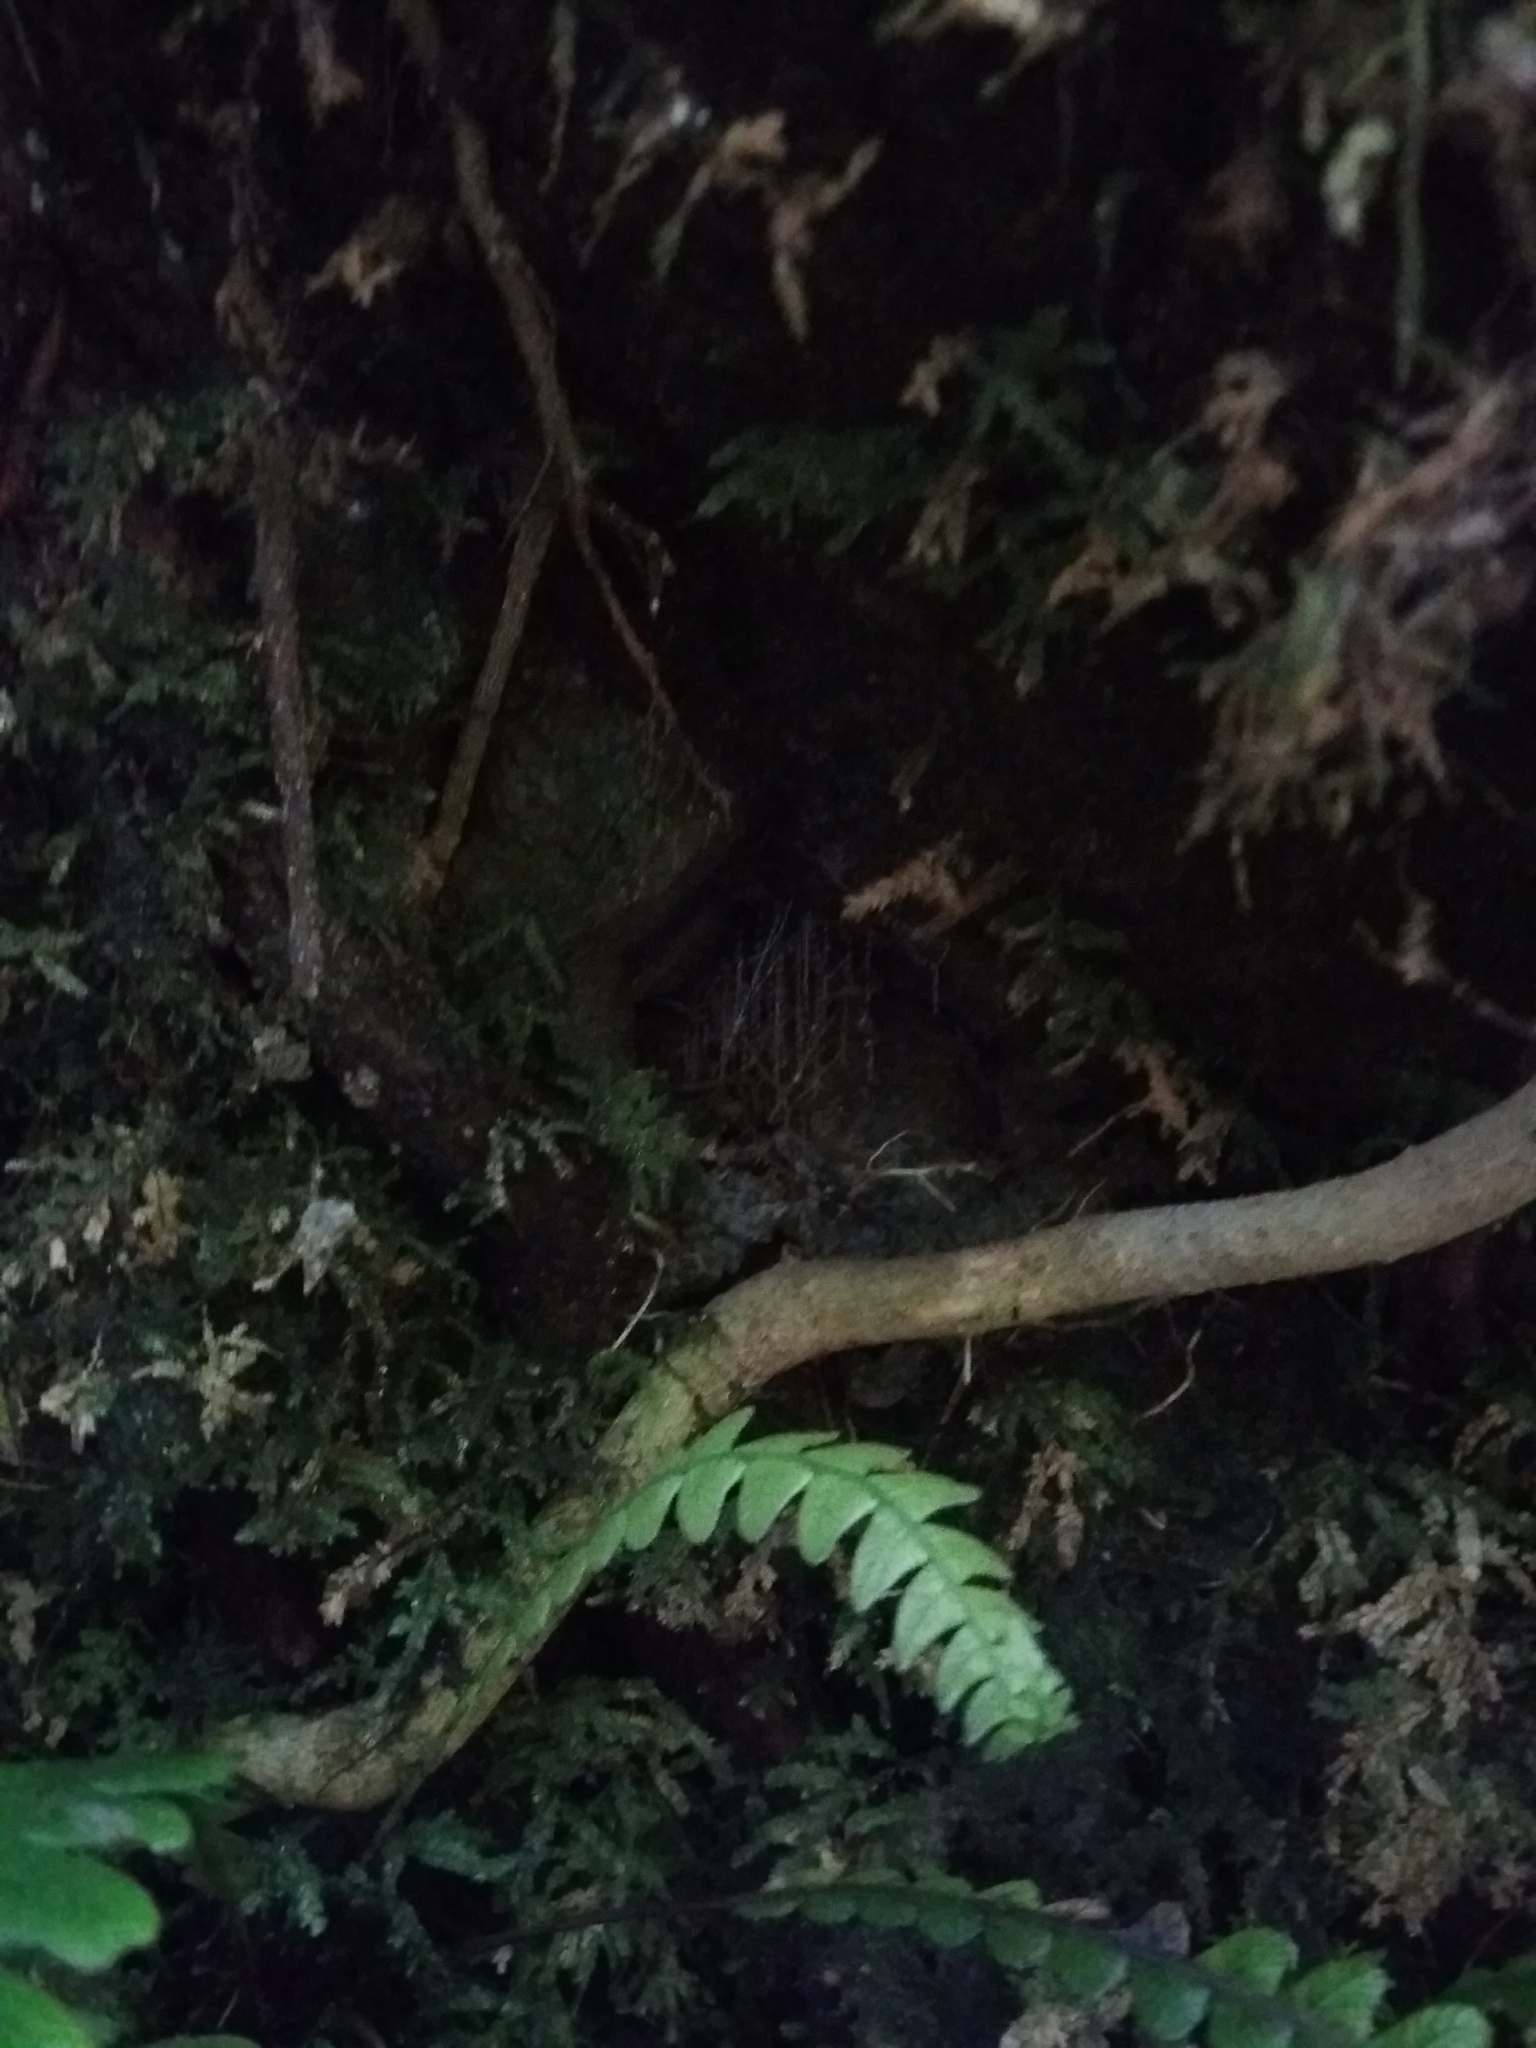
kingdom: Animalia
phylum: Arthropoda
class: Insecta
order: Diptera
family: Keroplatidae
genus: Arachnocampa
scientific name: Arachnocampa luminosa
